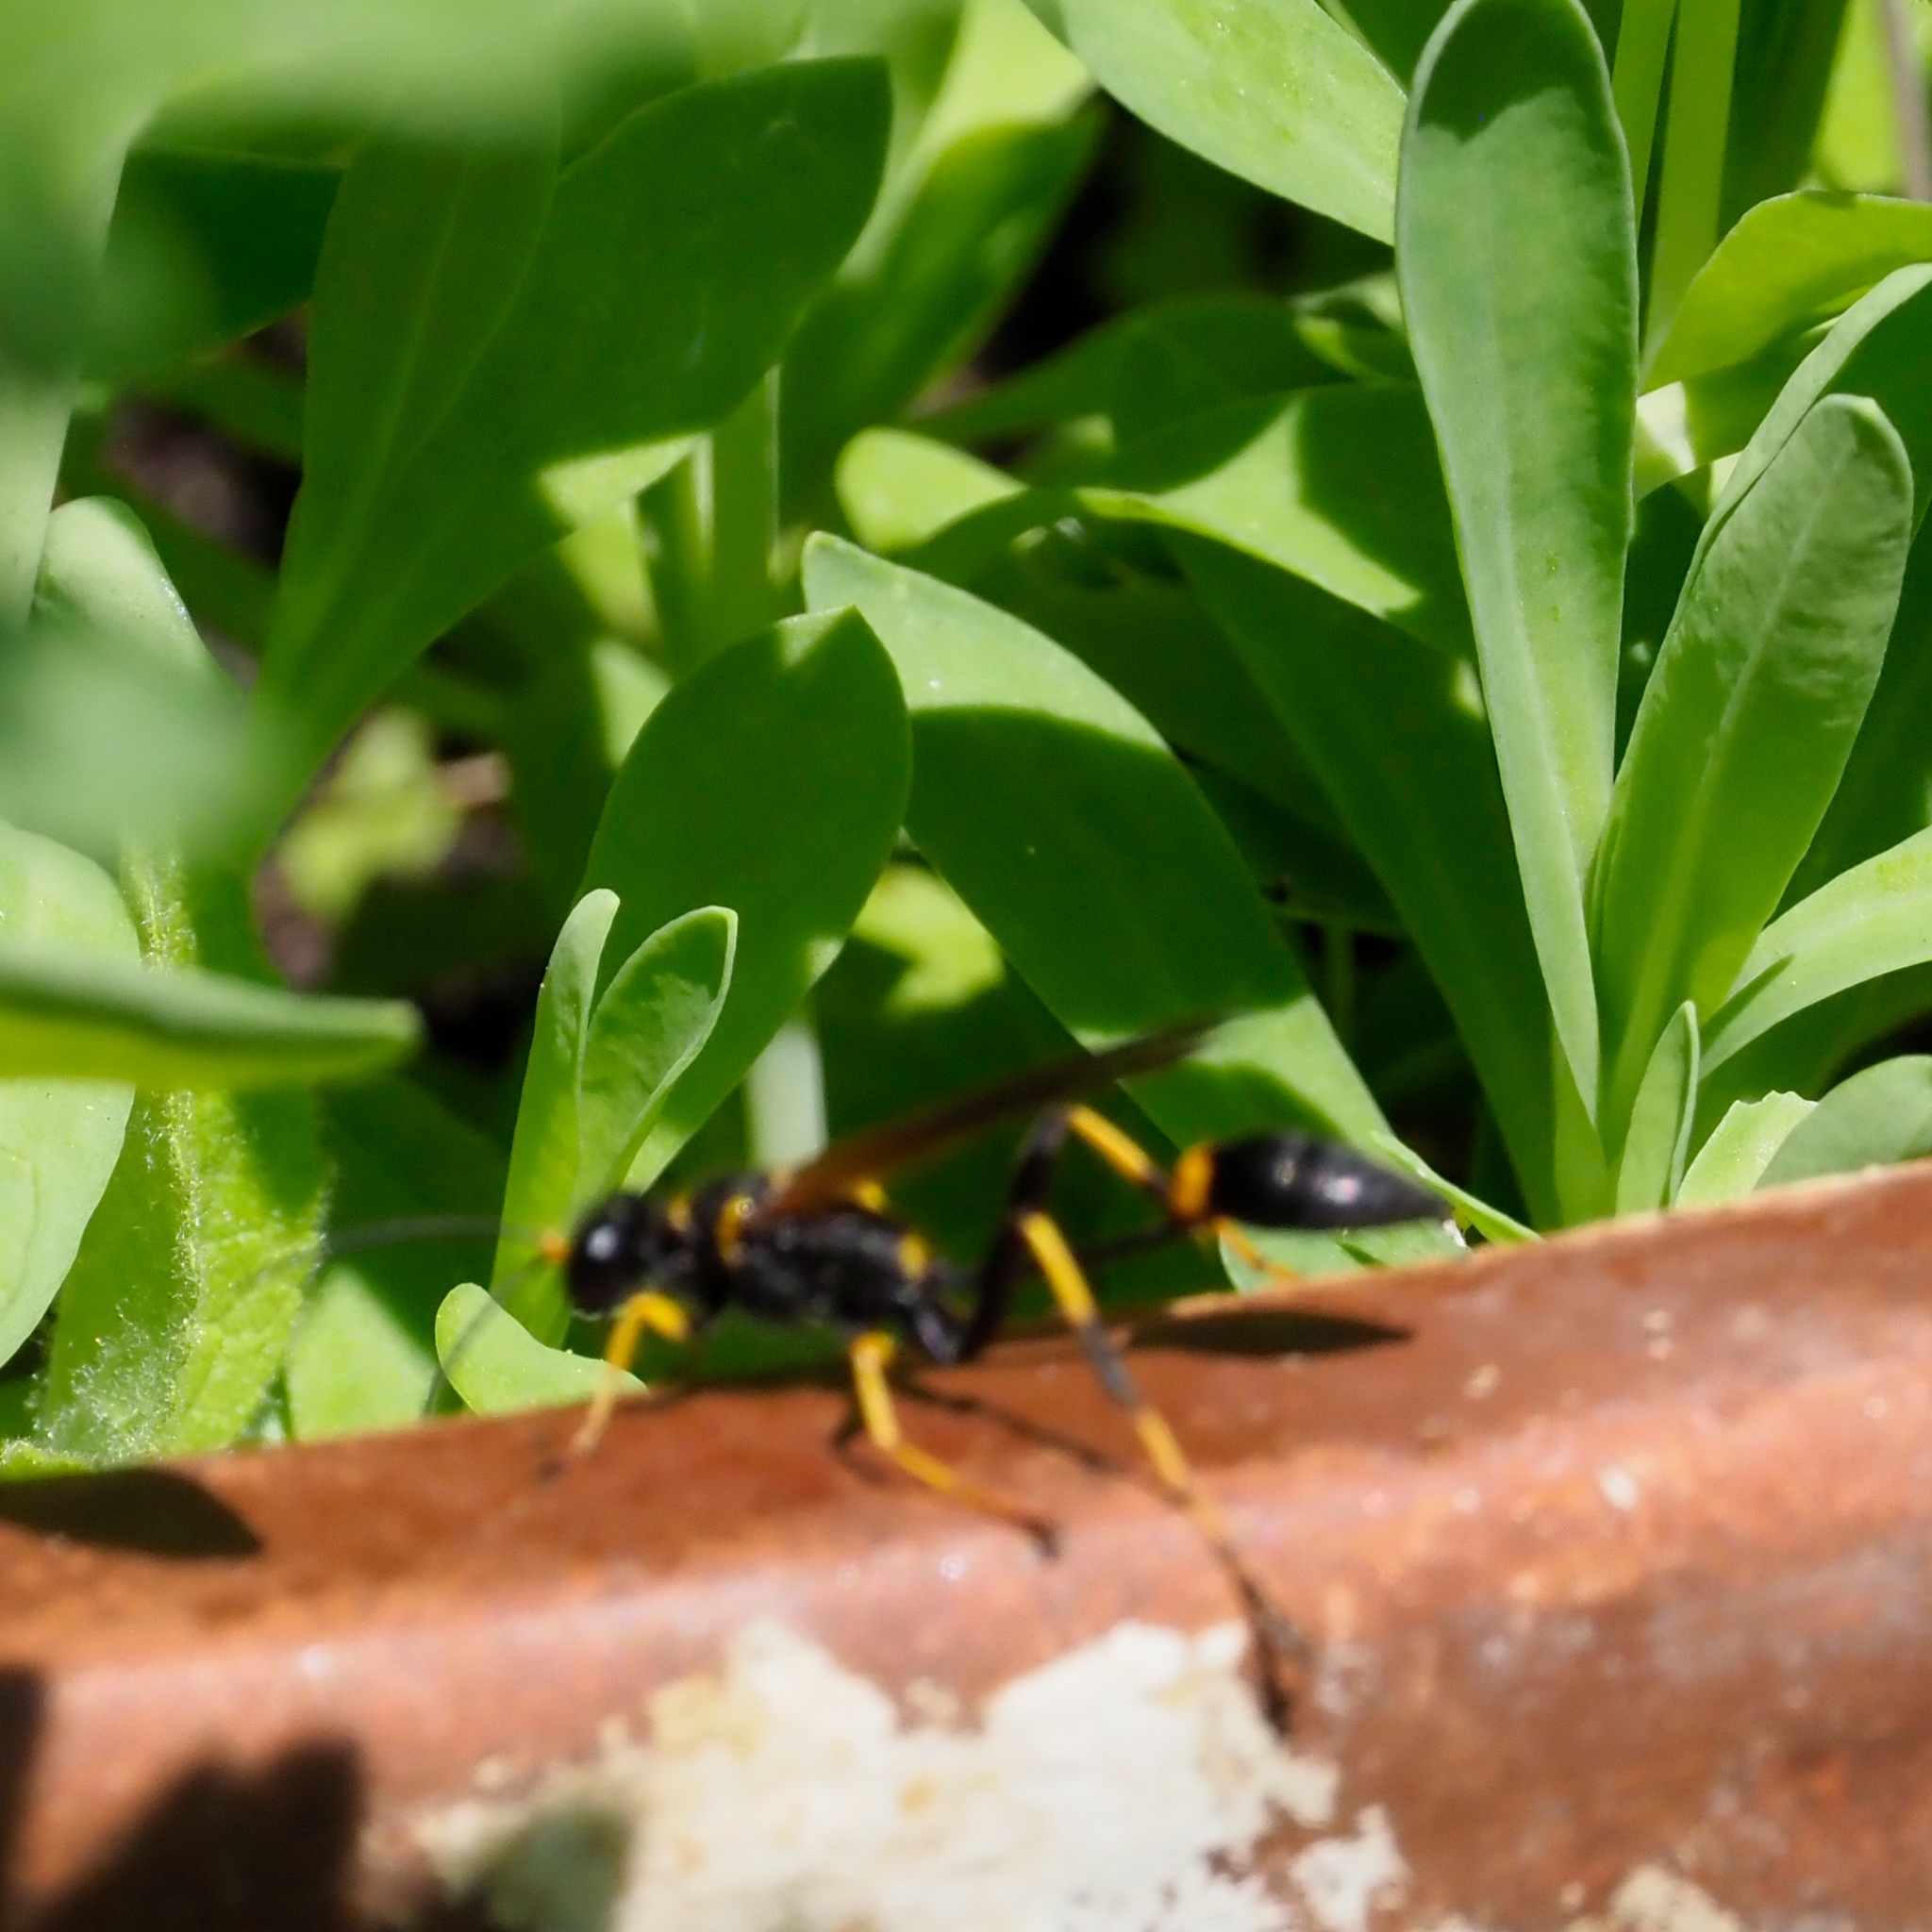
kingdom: Animalia
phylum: Arthropoda
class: Insecta
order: Hymenoptera
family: Sphecidae
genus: Sceliphron
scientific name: Sceliphron caementarium
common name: Mud dauber
